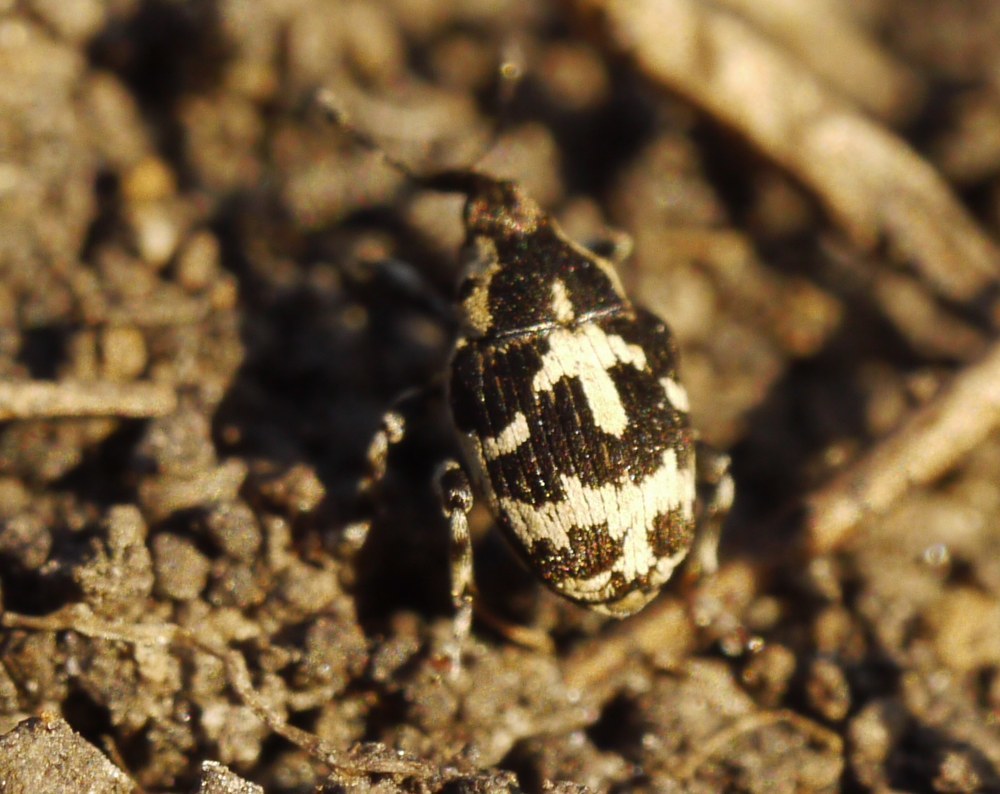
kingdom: Animalia
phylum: Arthropoda
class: Insecta
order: Coleoptera
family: Curculionidae
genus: Thamiocolus
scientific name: Thamiocolus sinapis
